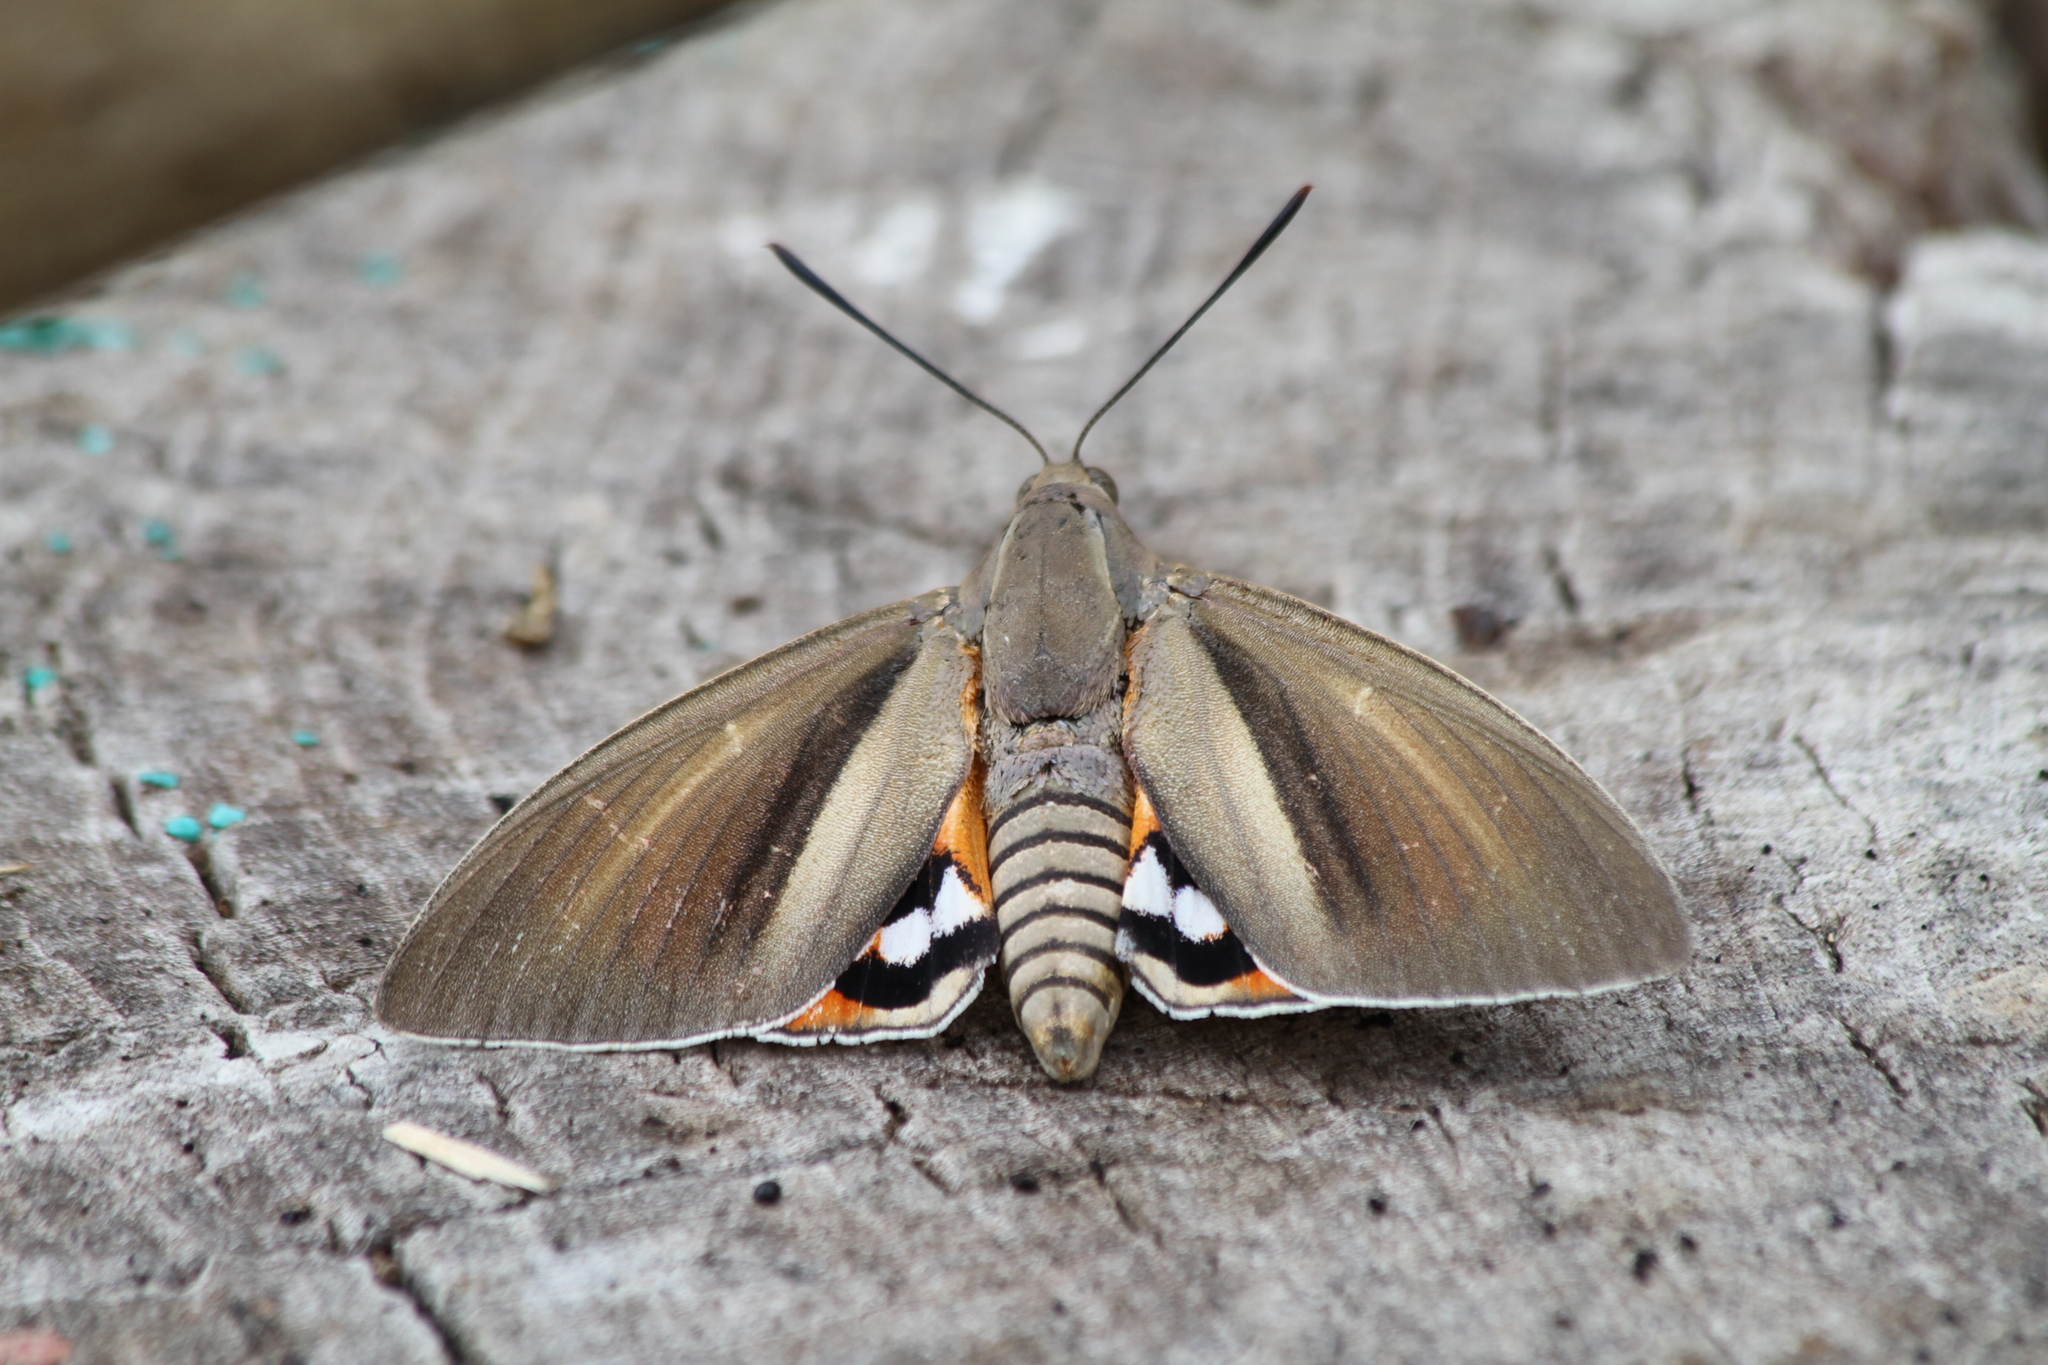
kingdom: Animalia
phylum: Arthropoda
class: Insecta
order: Lepidoptera
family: Castniidae
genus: Paysandisia
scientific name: Paysandisia archon
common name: Palm moth
